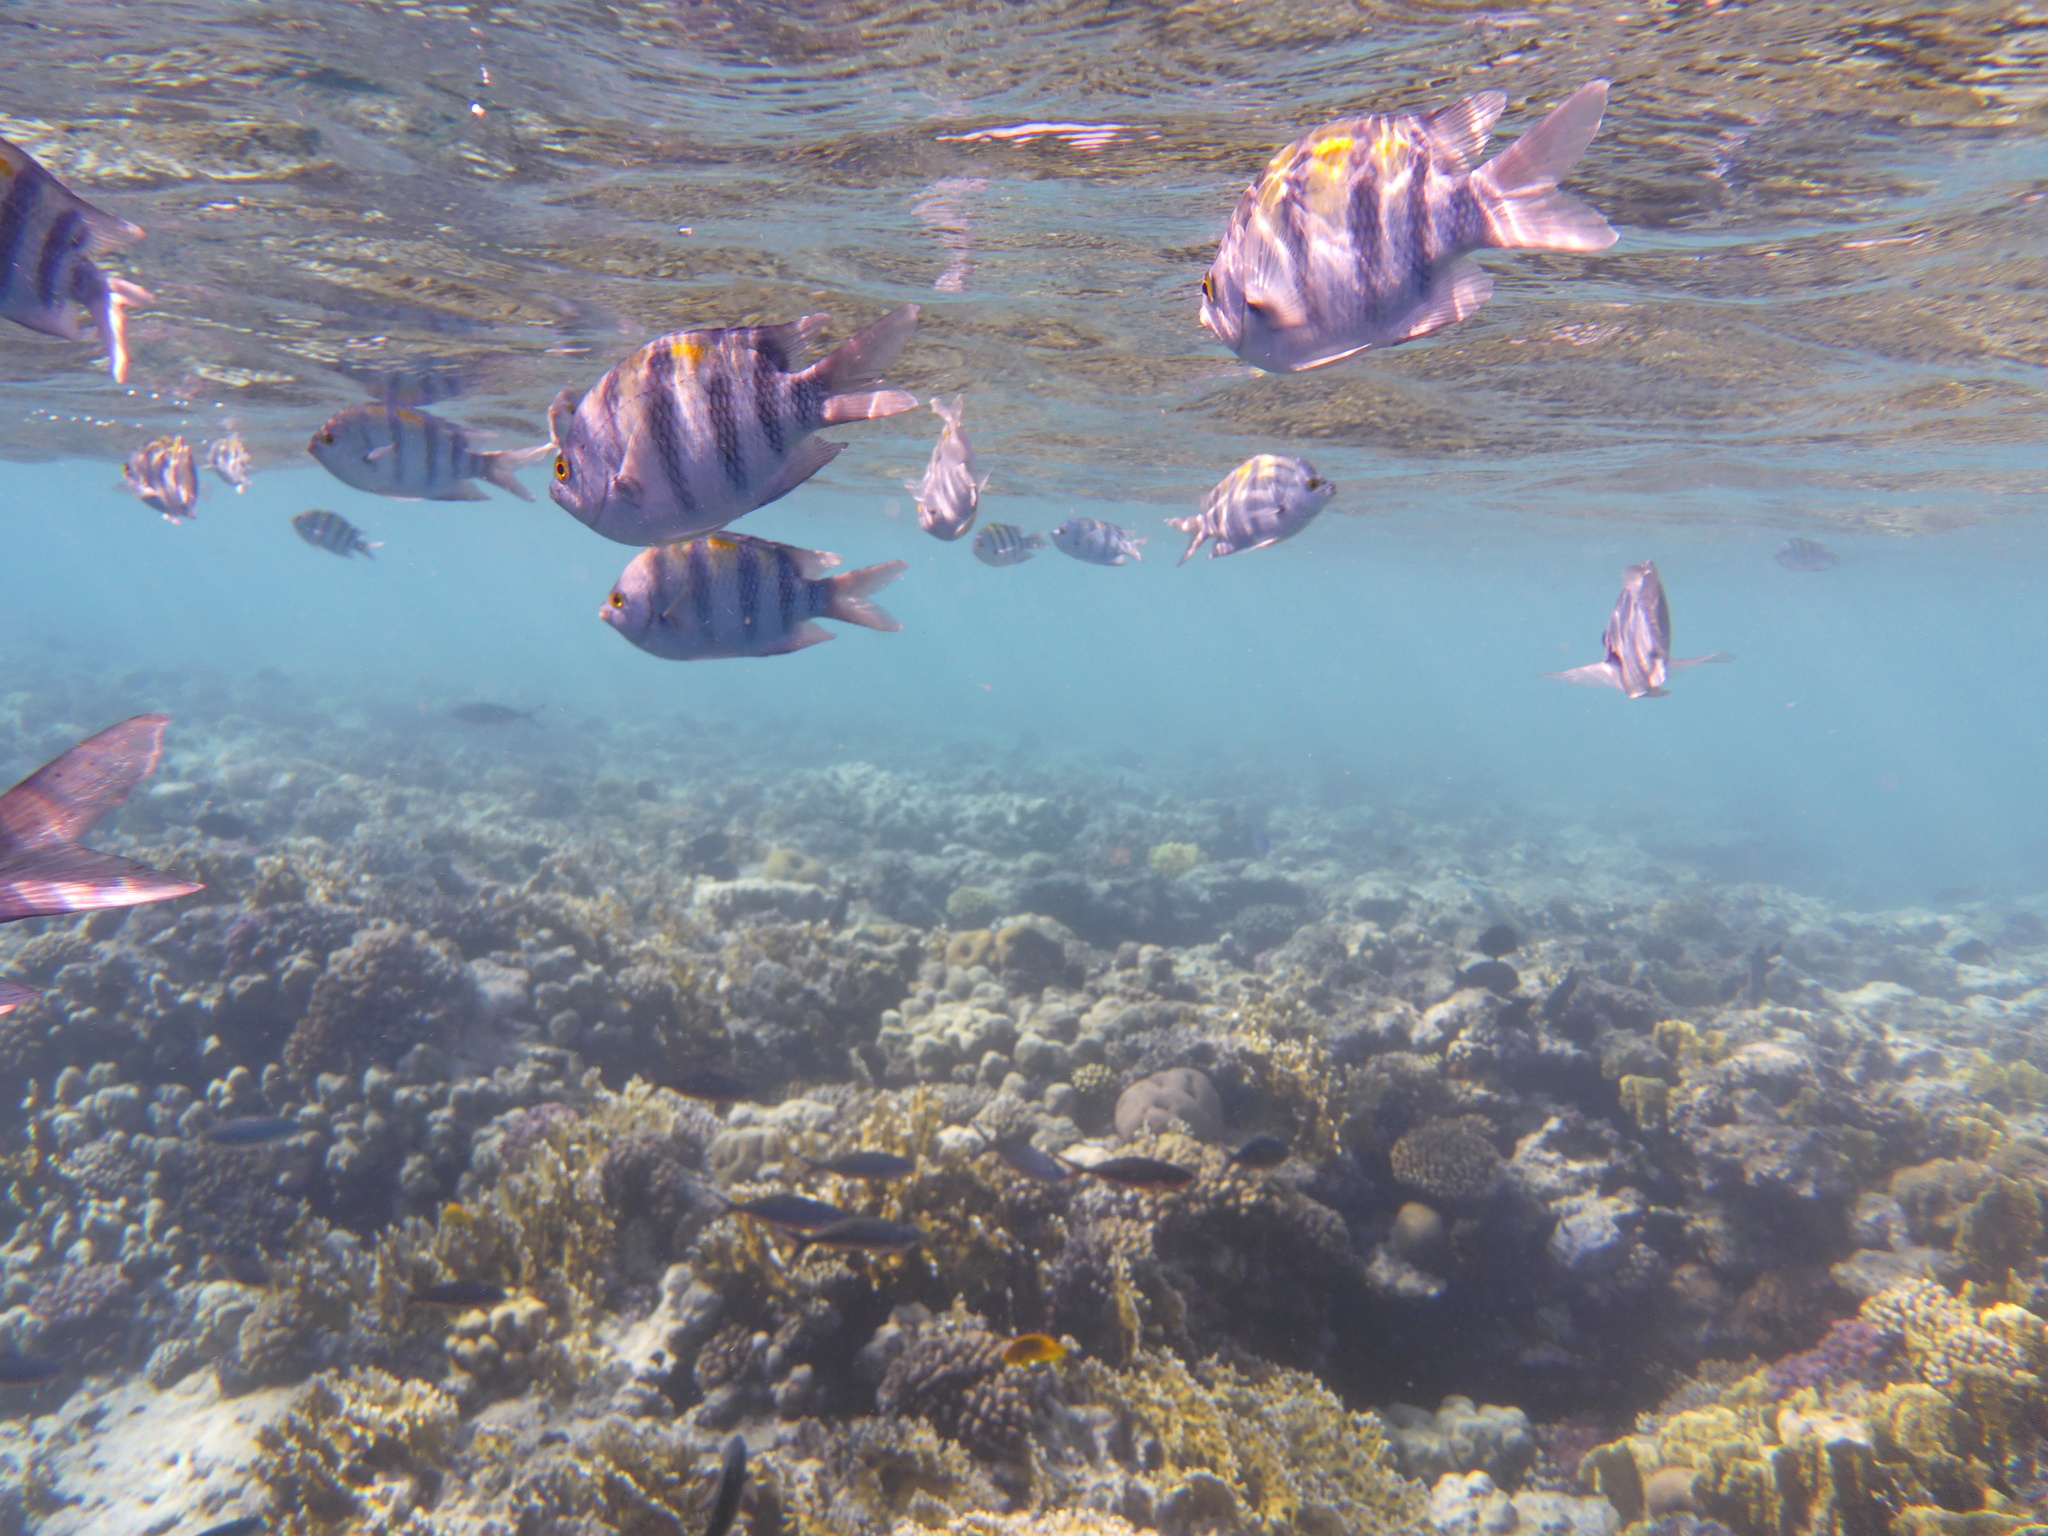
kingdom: Animalia
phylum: Chordata
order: Perciformes
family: Pomacentridae
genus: Abudefduf
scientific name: Abudefduf vaigiensis
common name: Indo-pacific sergeant
